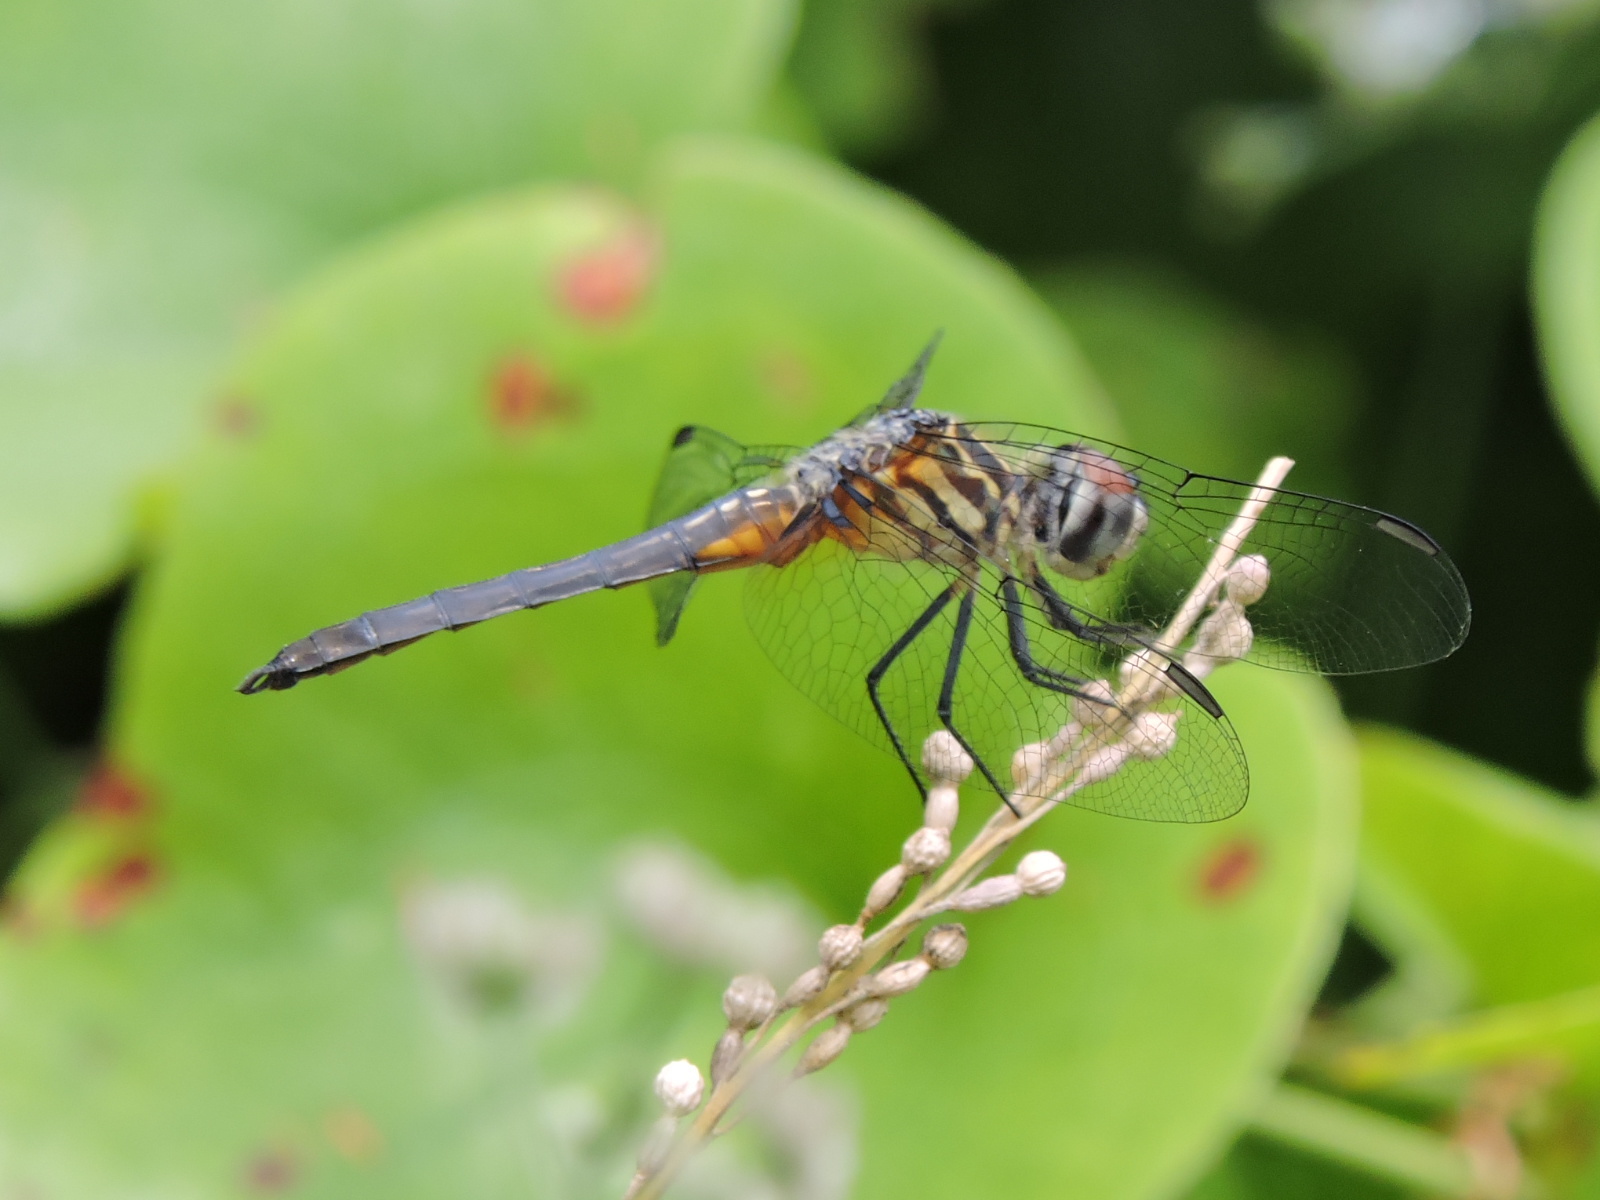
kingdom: Animalia
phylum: Arthropoda
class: Insecta
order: Odonata
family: Libellulidae
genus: Pachydiplax
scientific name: Pachydiplax longipennis
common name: Blue dasher
